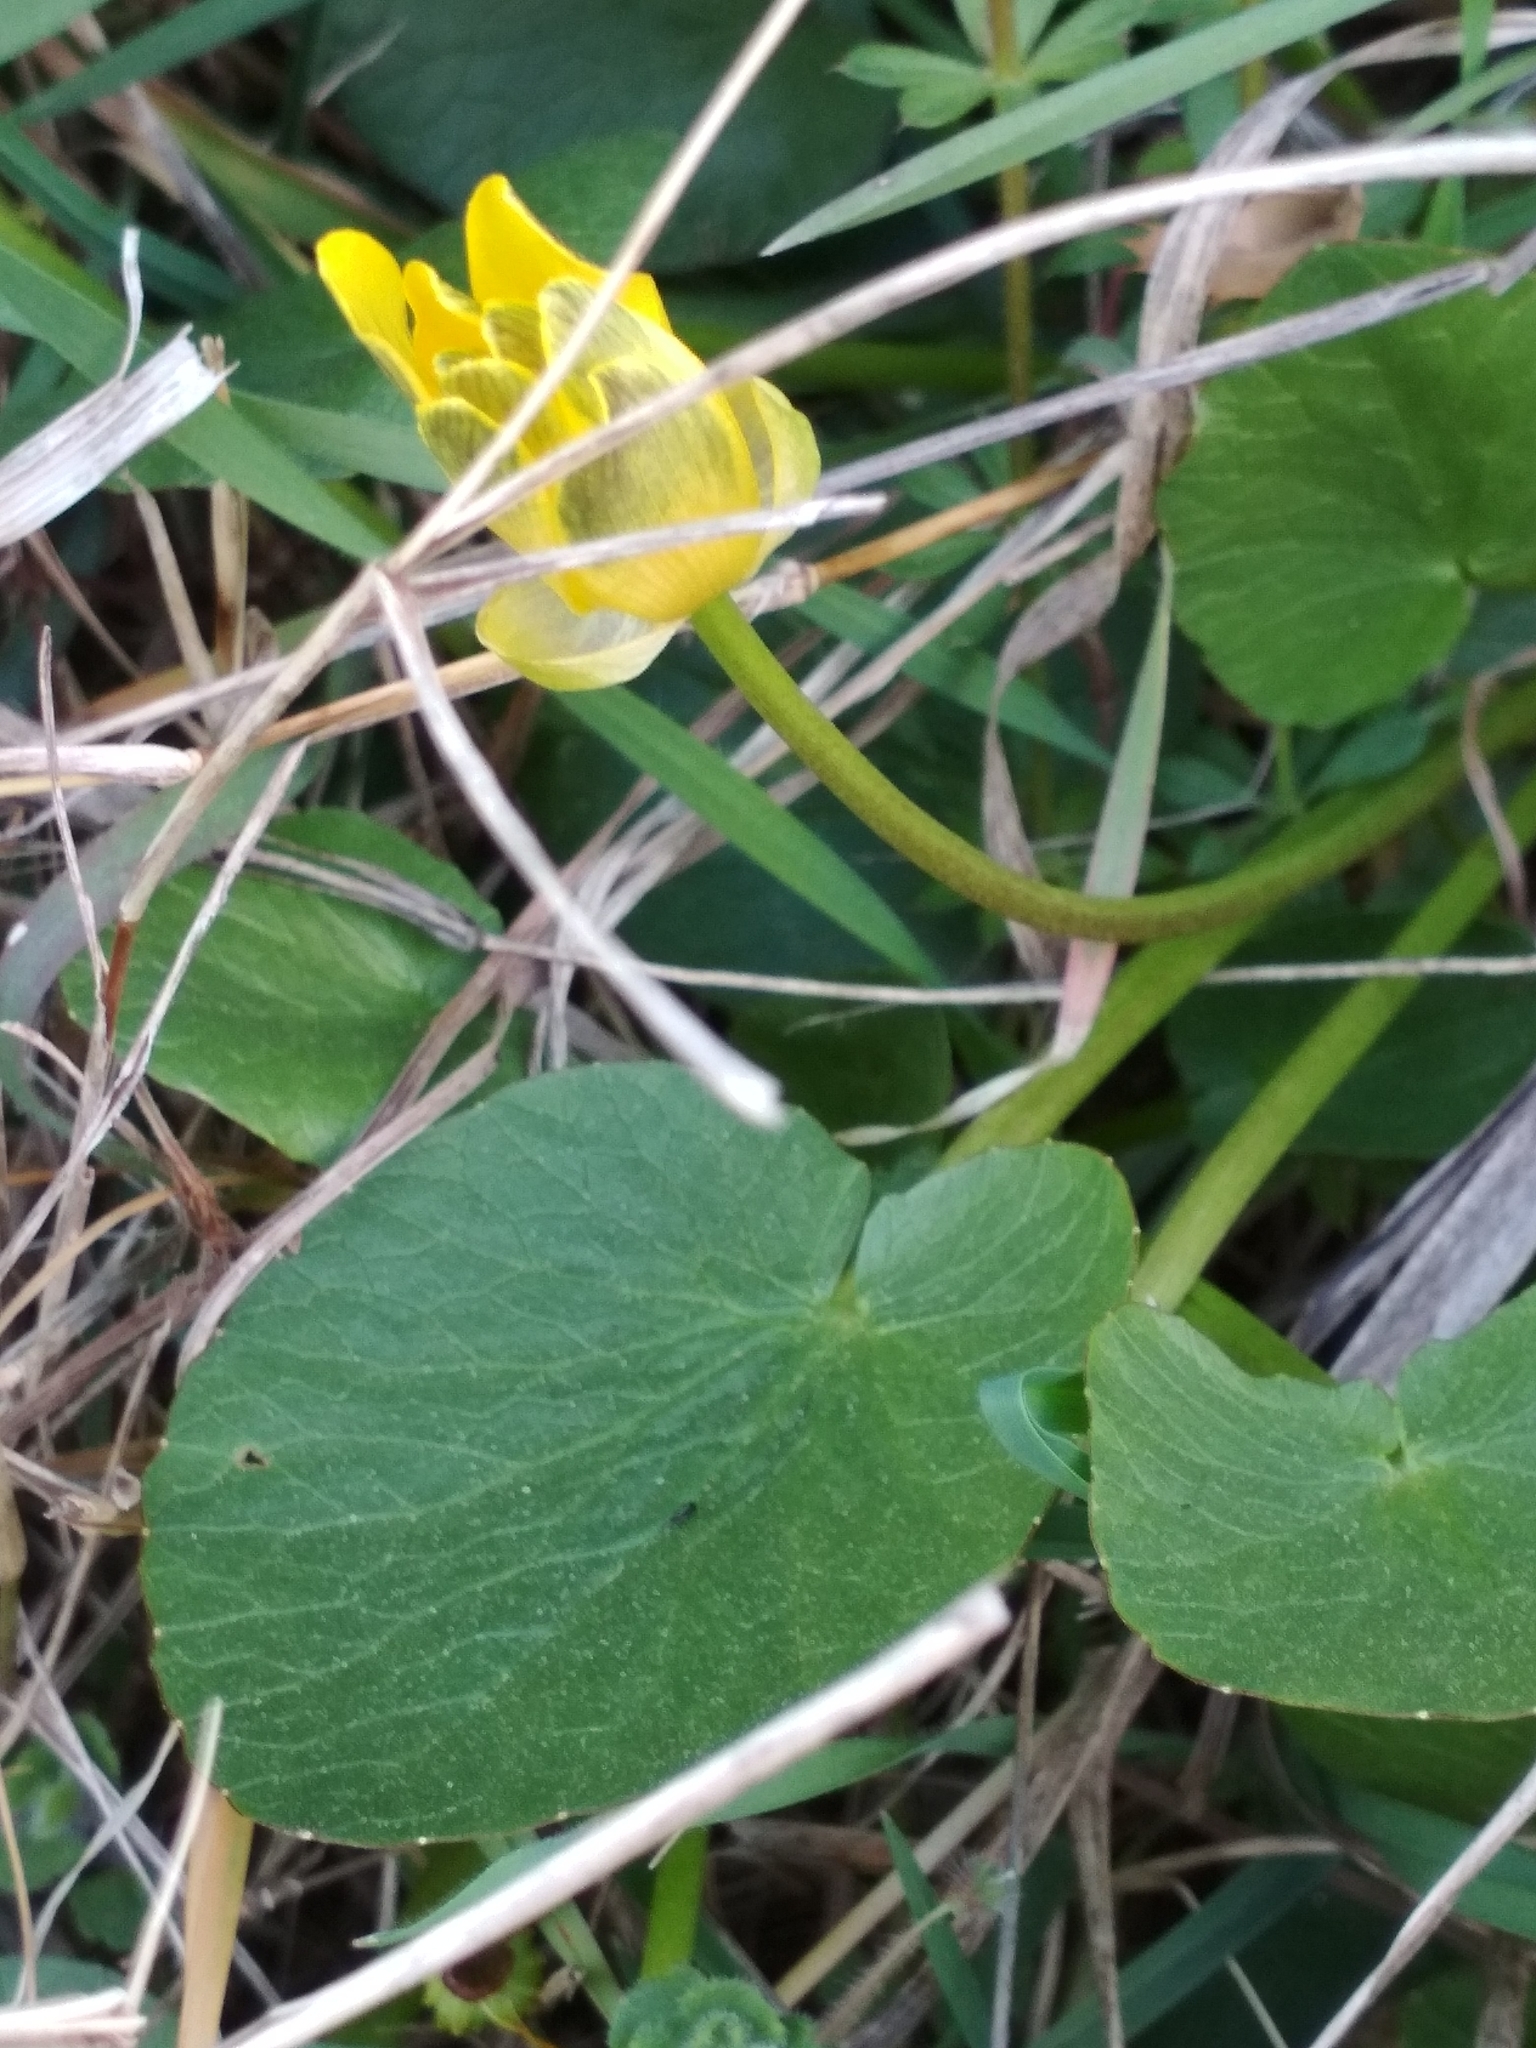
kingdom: Plantae
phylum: Tracheophyta
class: Magnoliopsida
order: Ranunculales
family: Ranunculaceae
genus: Ficaria
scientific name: Ficaria verna
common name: Lesser celandine
